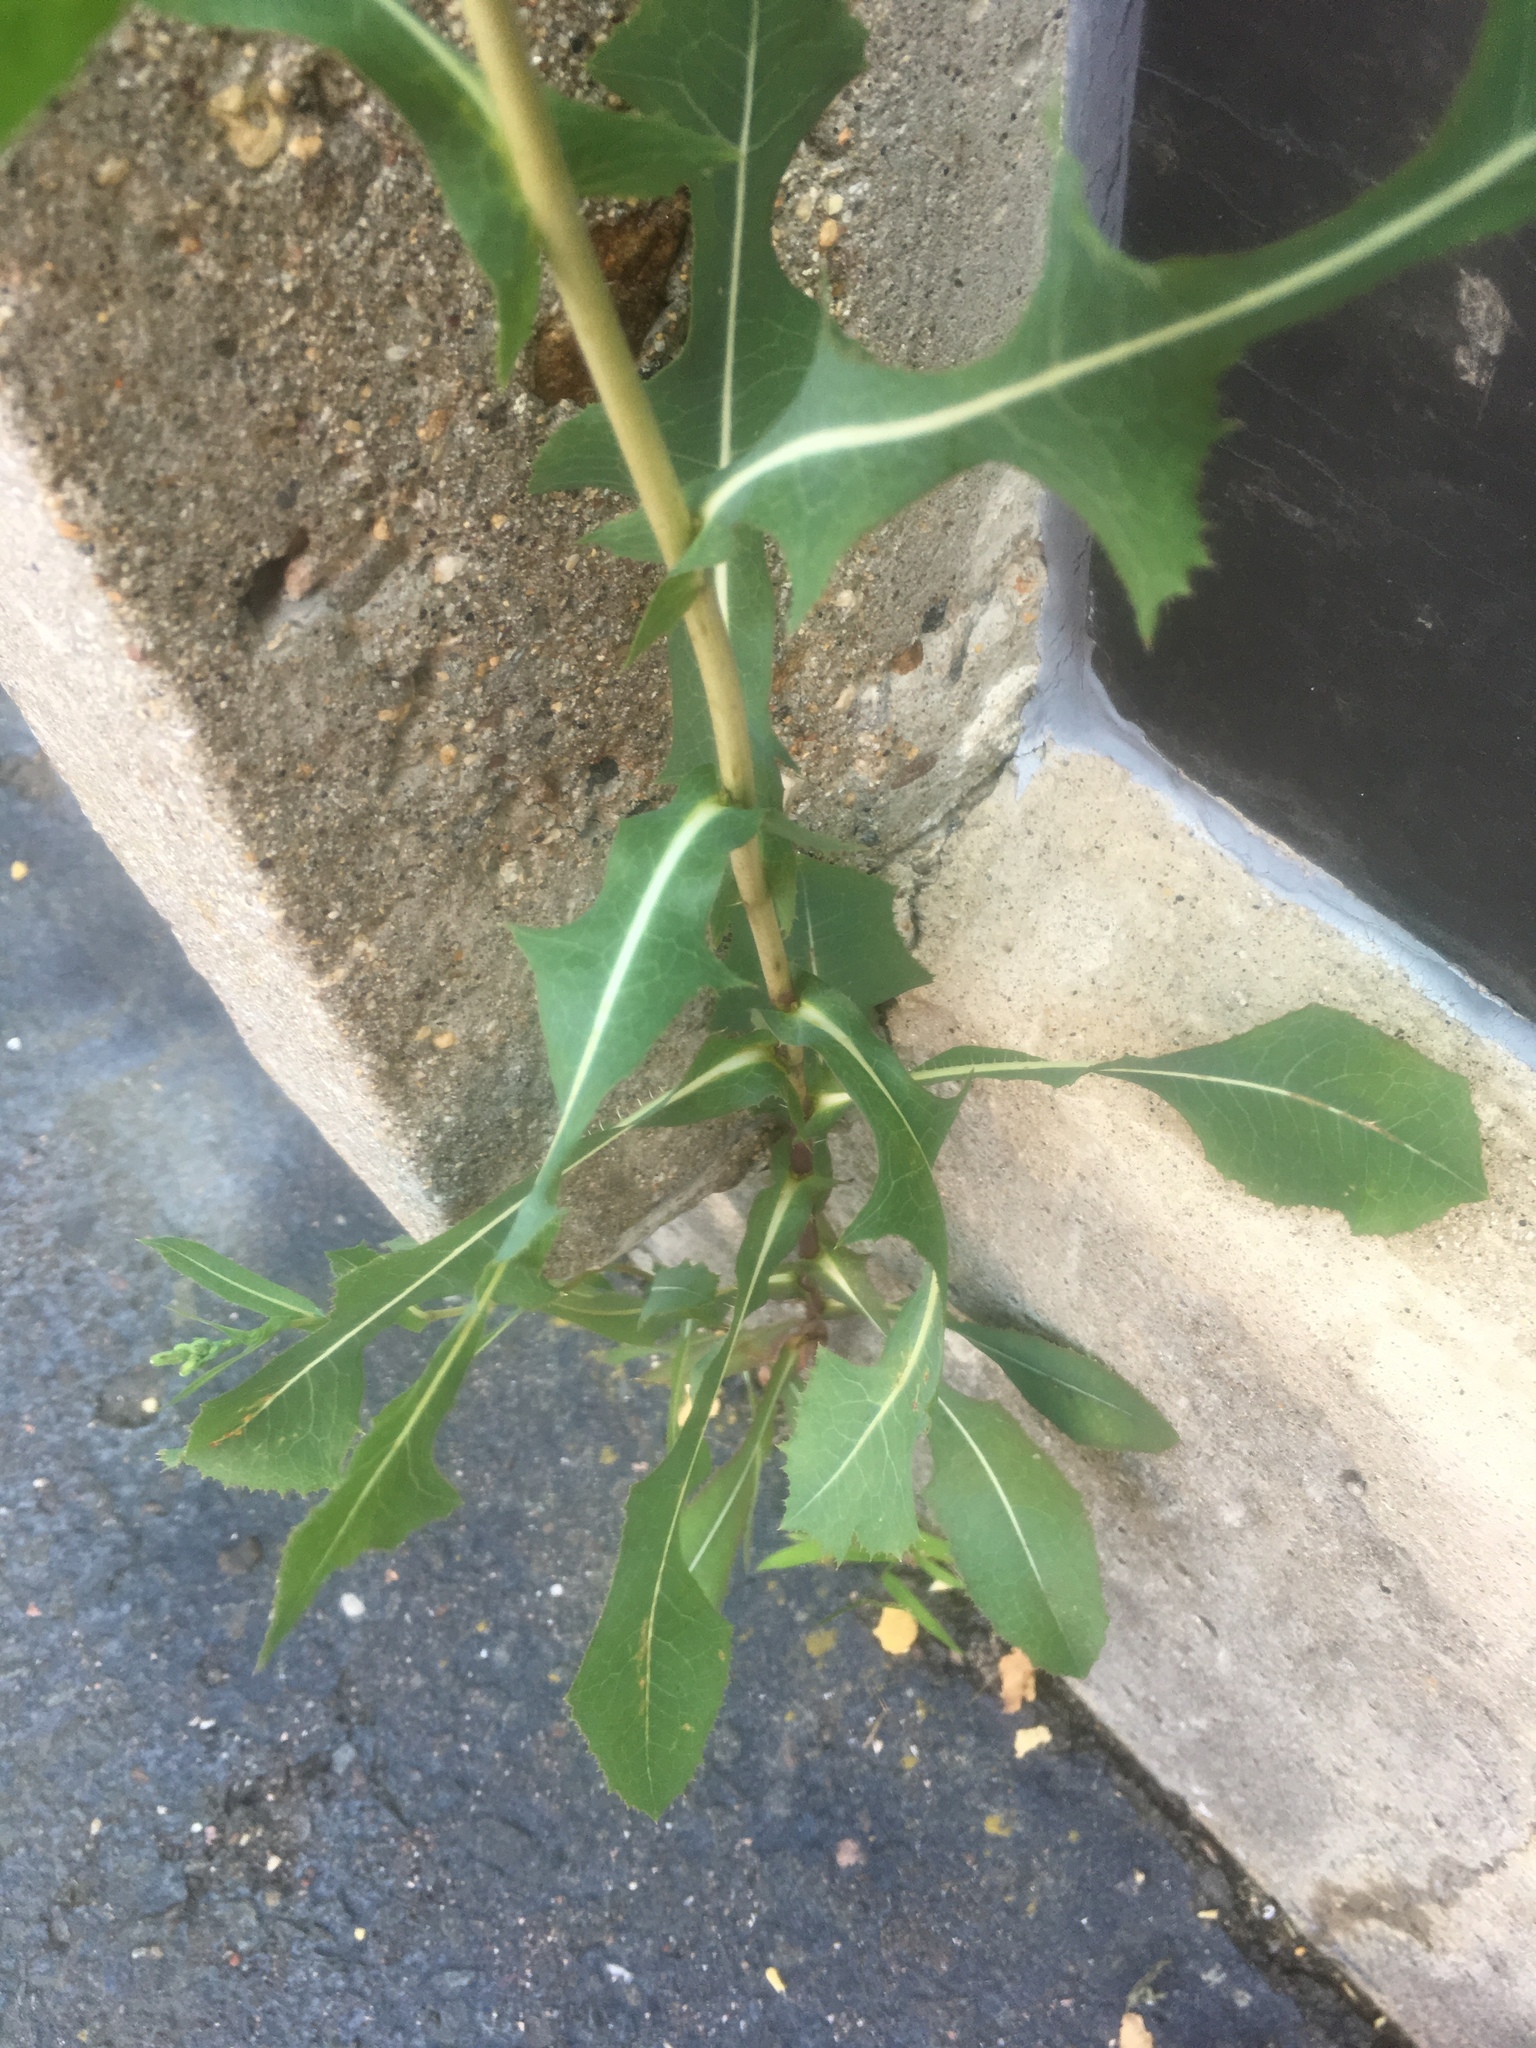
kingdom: Plantae
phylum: Tracheophyta
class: Magnoliopsida
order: Asterales
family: Asteraceae
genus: Lactuca
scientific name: Lactuca serriola
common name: Prickly lettuce
